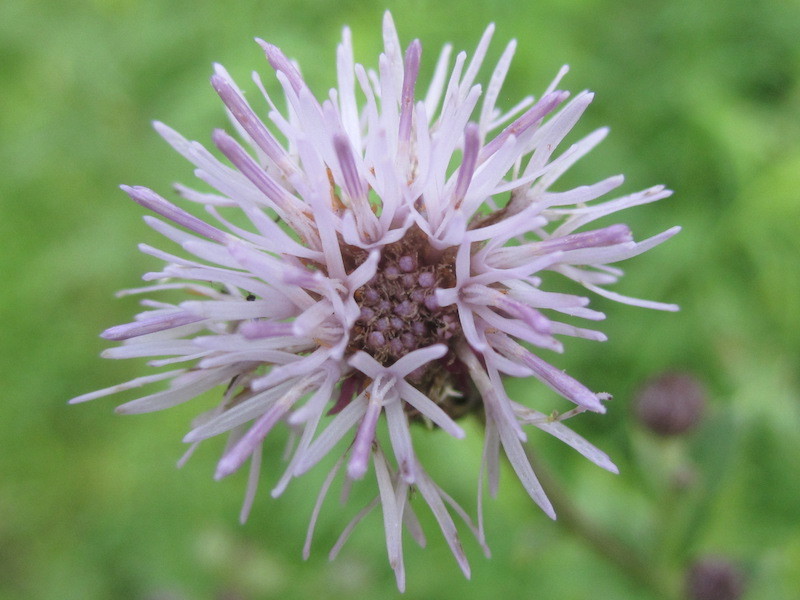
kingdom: Plantae
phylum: Tracheophyta
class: Magnoliopsida
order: Asterales
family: Asteraceae
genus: Cirsium
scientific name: Cirsium arvense
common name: Creeping thistle
